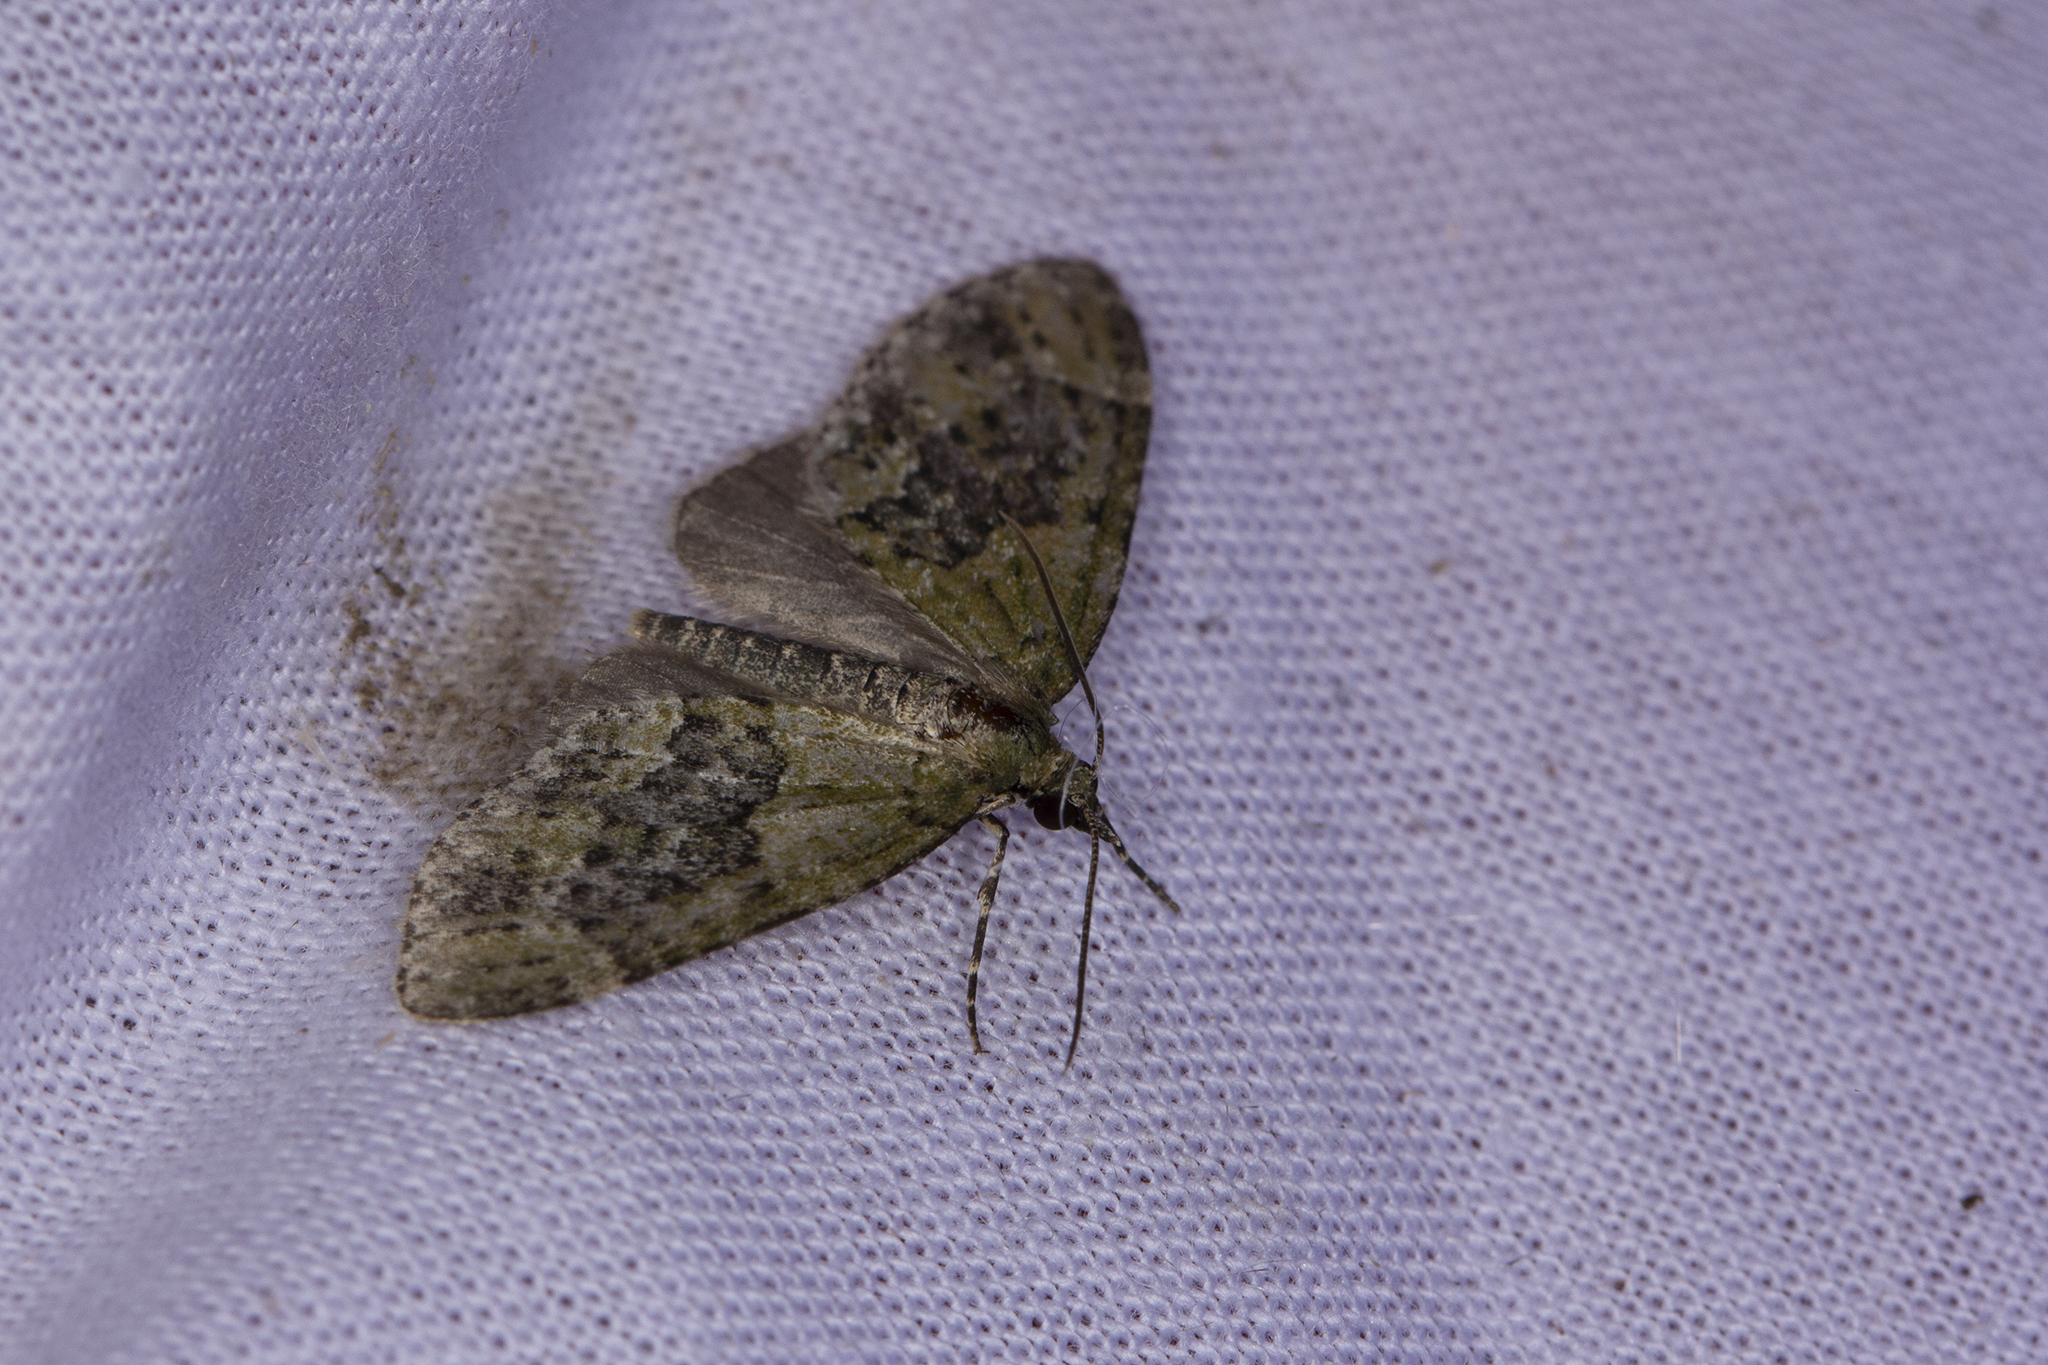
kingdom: Animalia
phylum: Arthropoda
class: Insecta
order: Lepidoptera
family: Geometridae
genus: Acasis
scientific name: Acasis viretata
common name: Yellow-barred brindle
